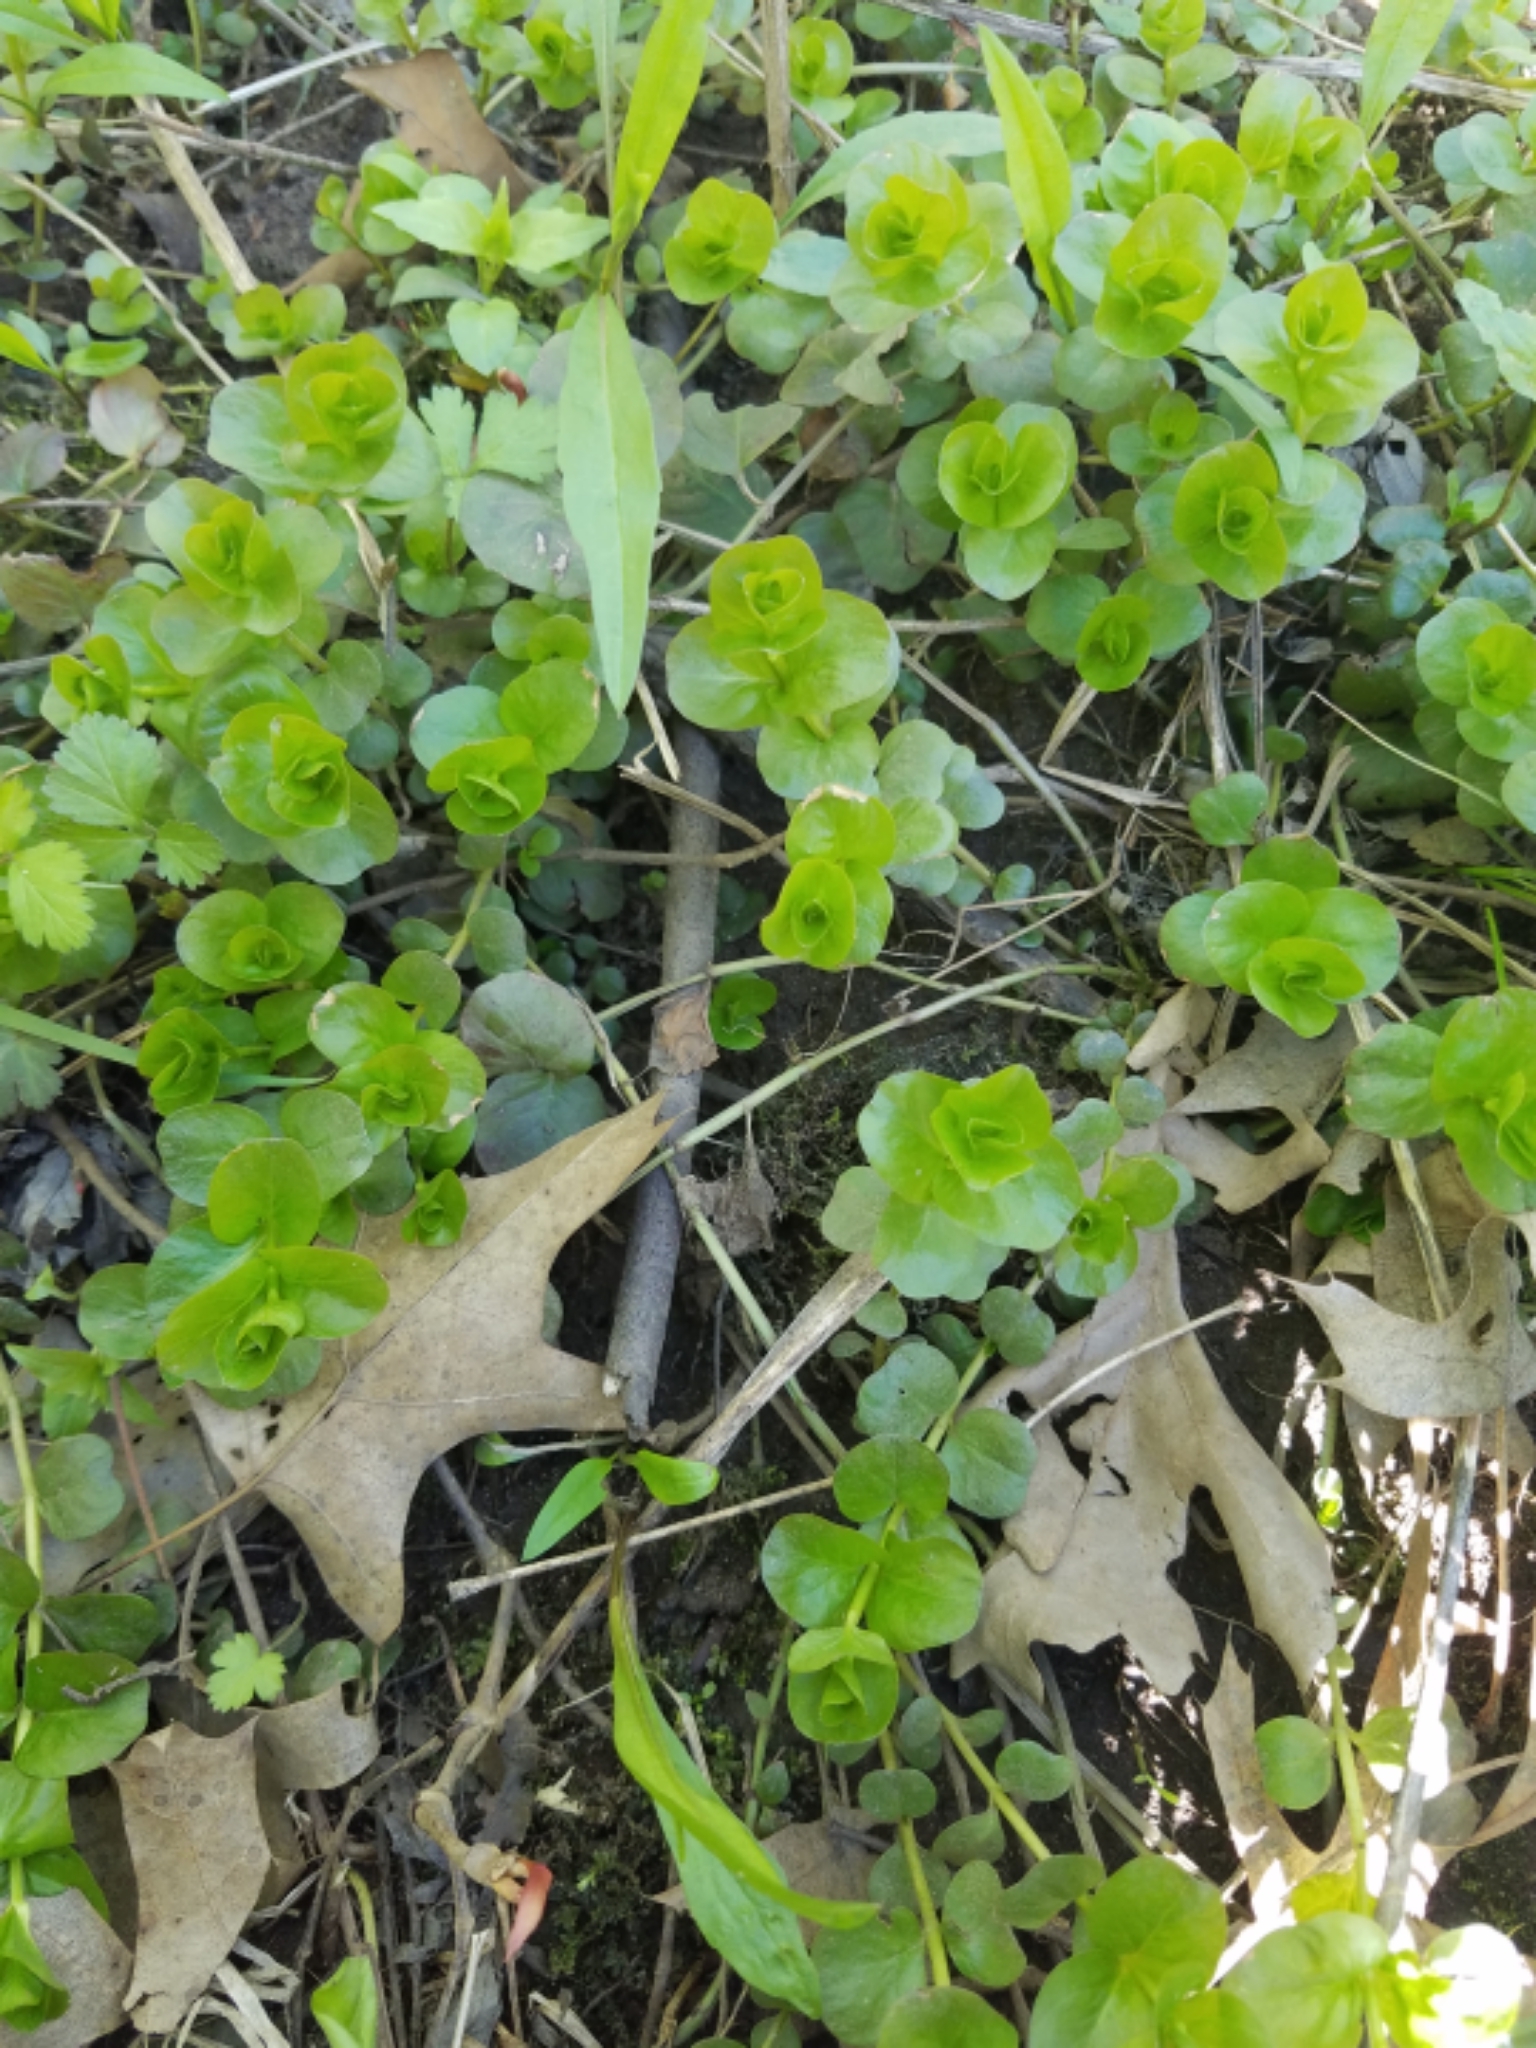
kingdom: Plantae
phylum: Tracheophyta
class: Magnoliopsida
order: Ericales
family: Primulaceae
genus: Lysimachia
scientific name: Lysimachia nummularia
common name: Moneywort
